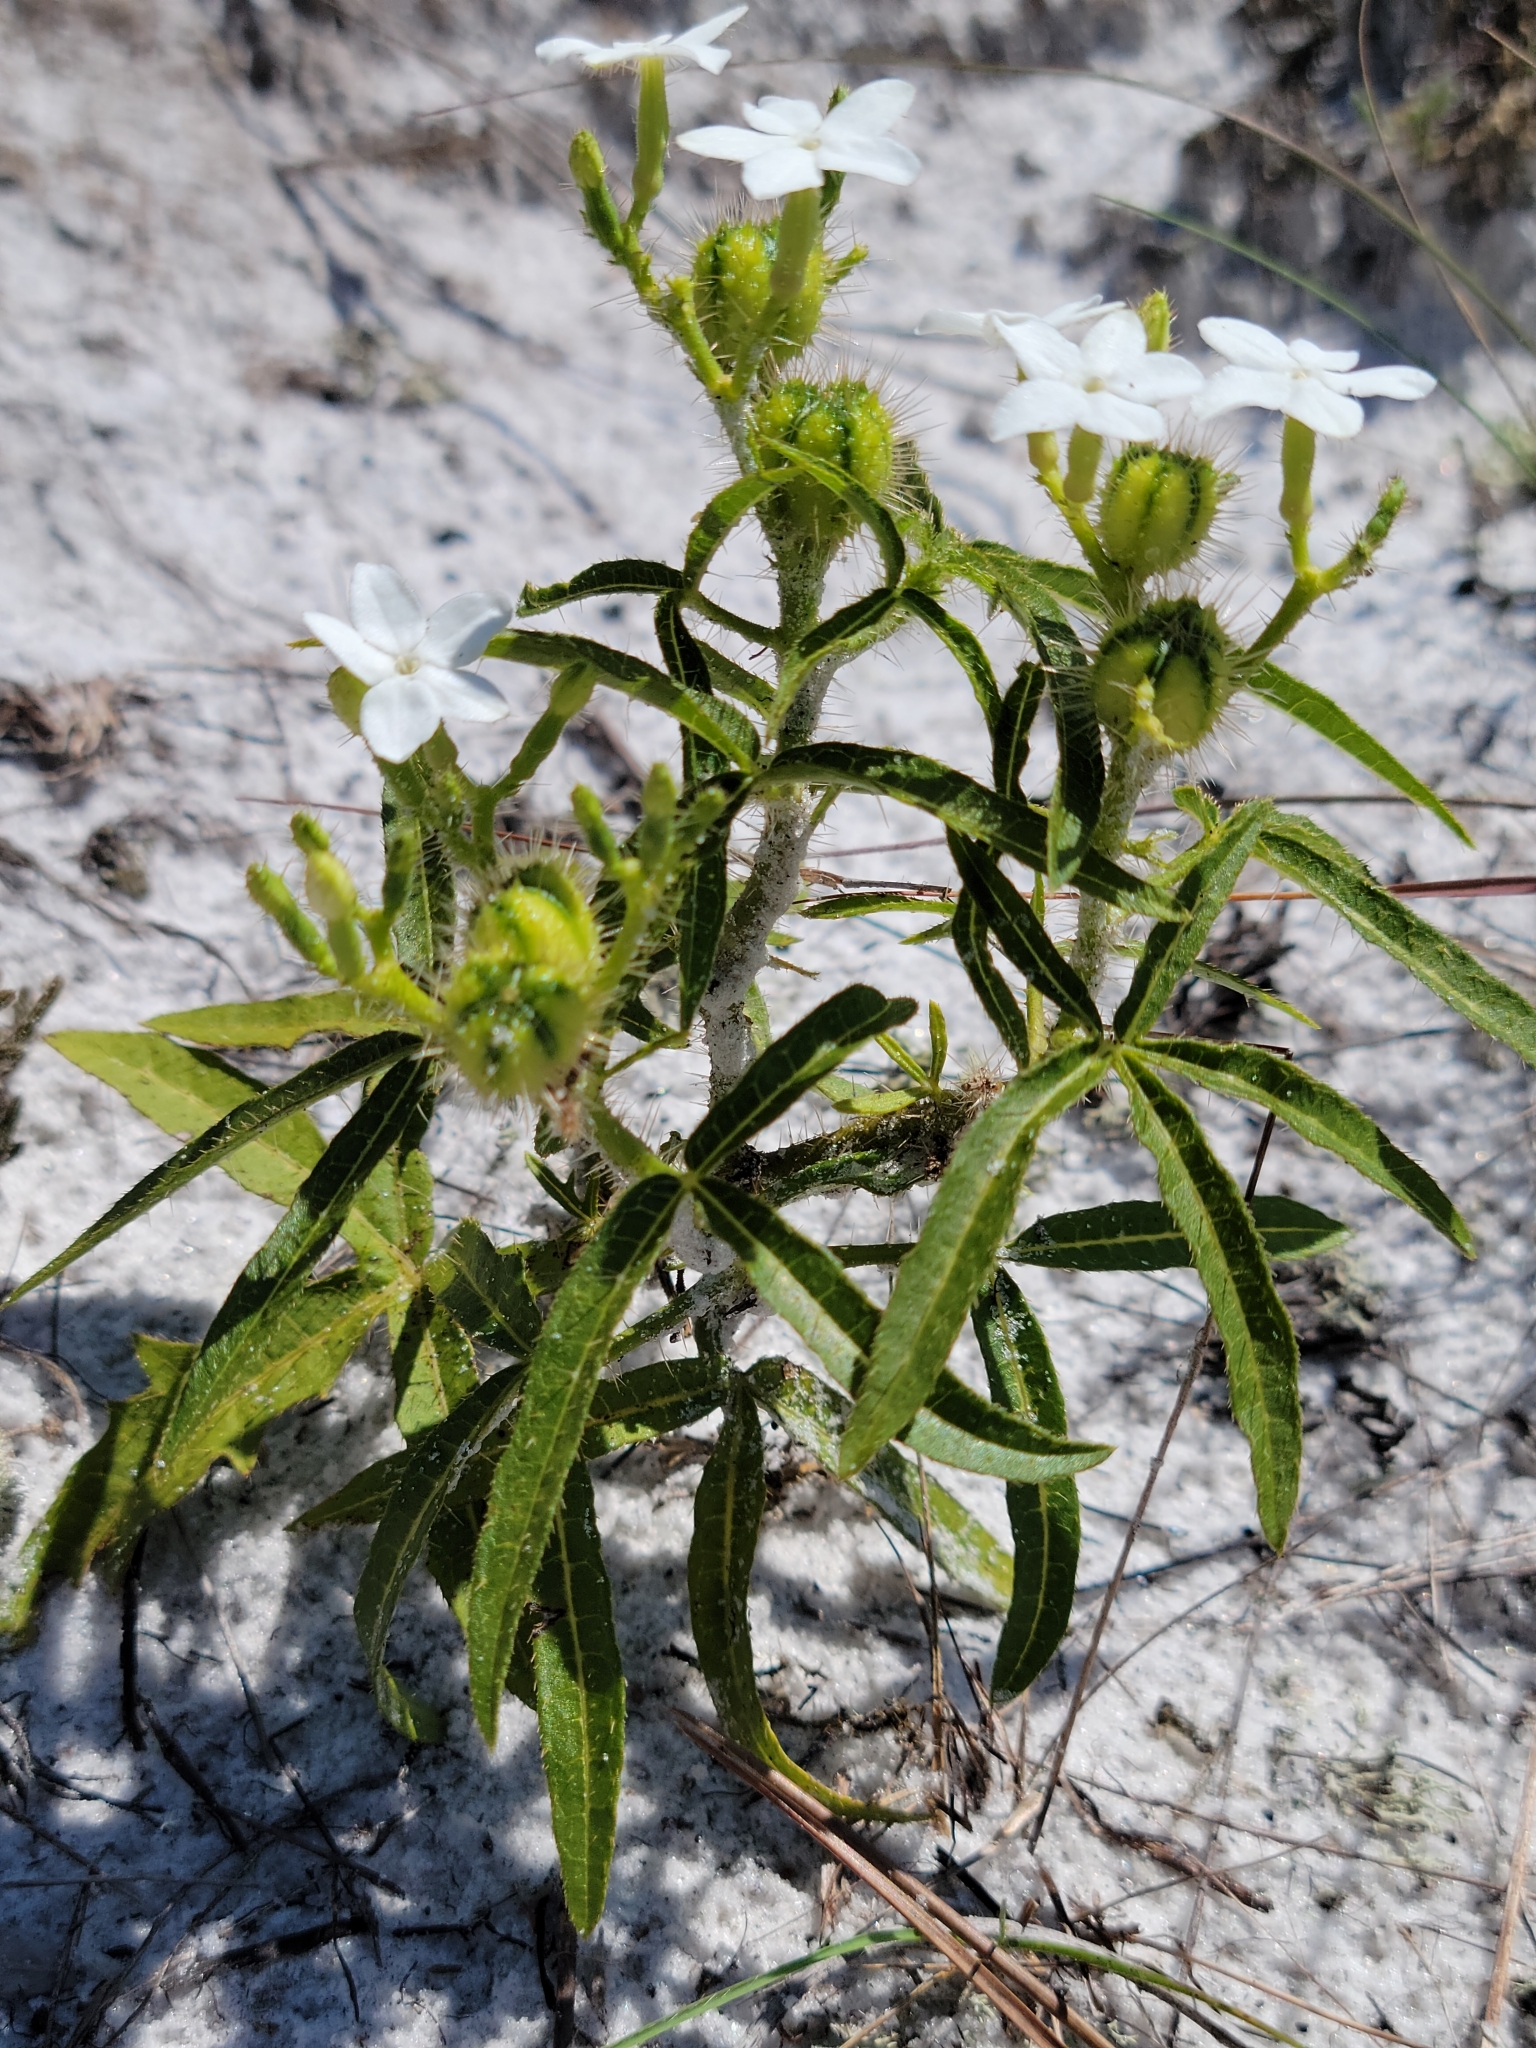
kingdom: Plantae
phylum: Tracheophyta
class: Magnoliopsida
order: Malpighiales
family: Euphorbiaceae
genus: Cnidoscolus
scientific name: Cnidoscolus stimulosus
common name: Bull-nettle
